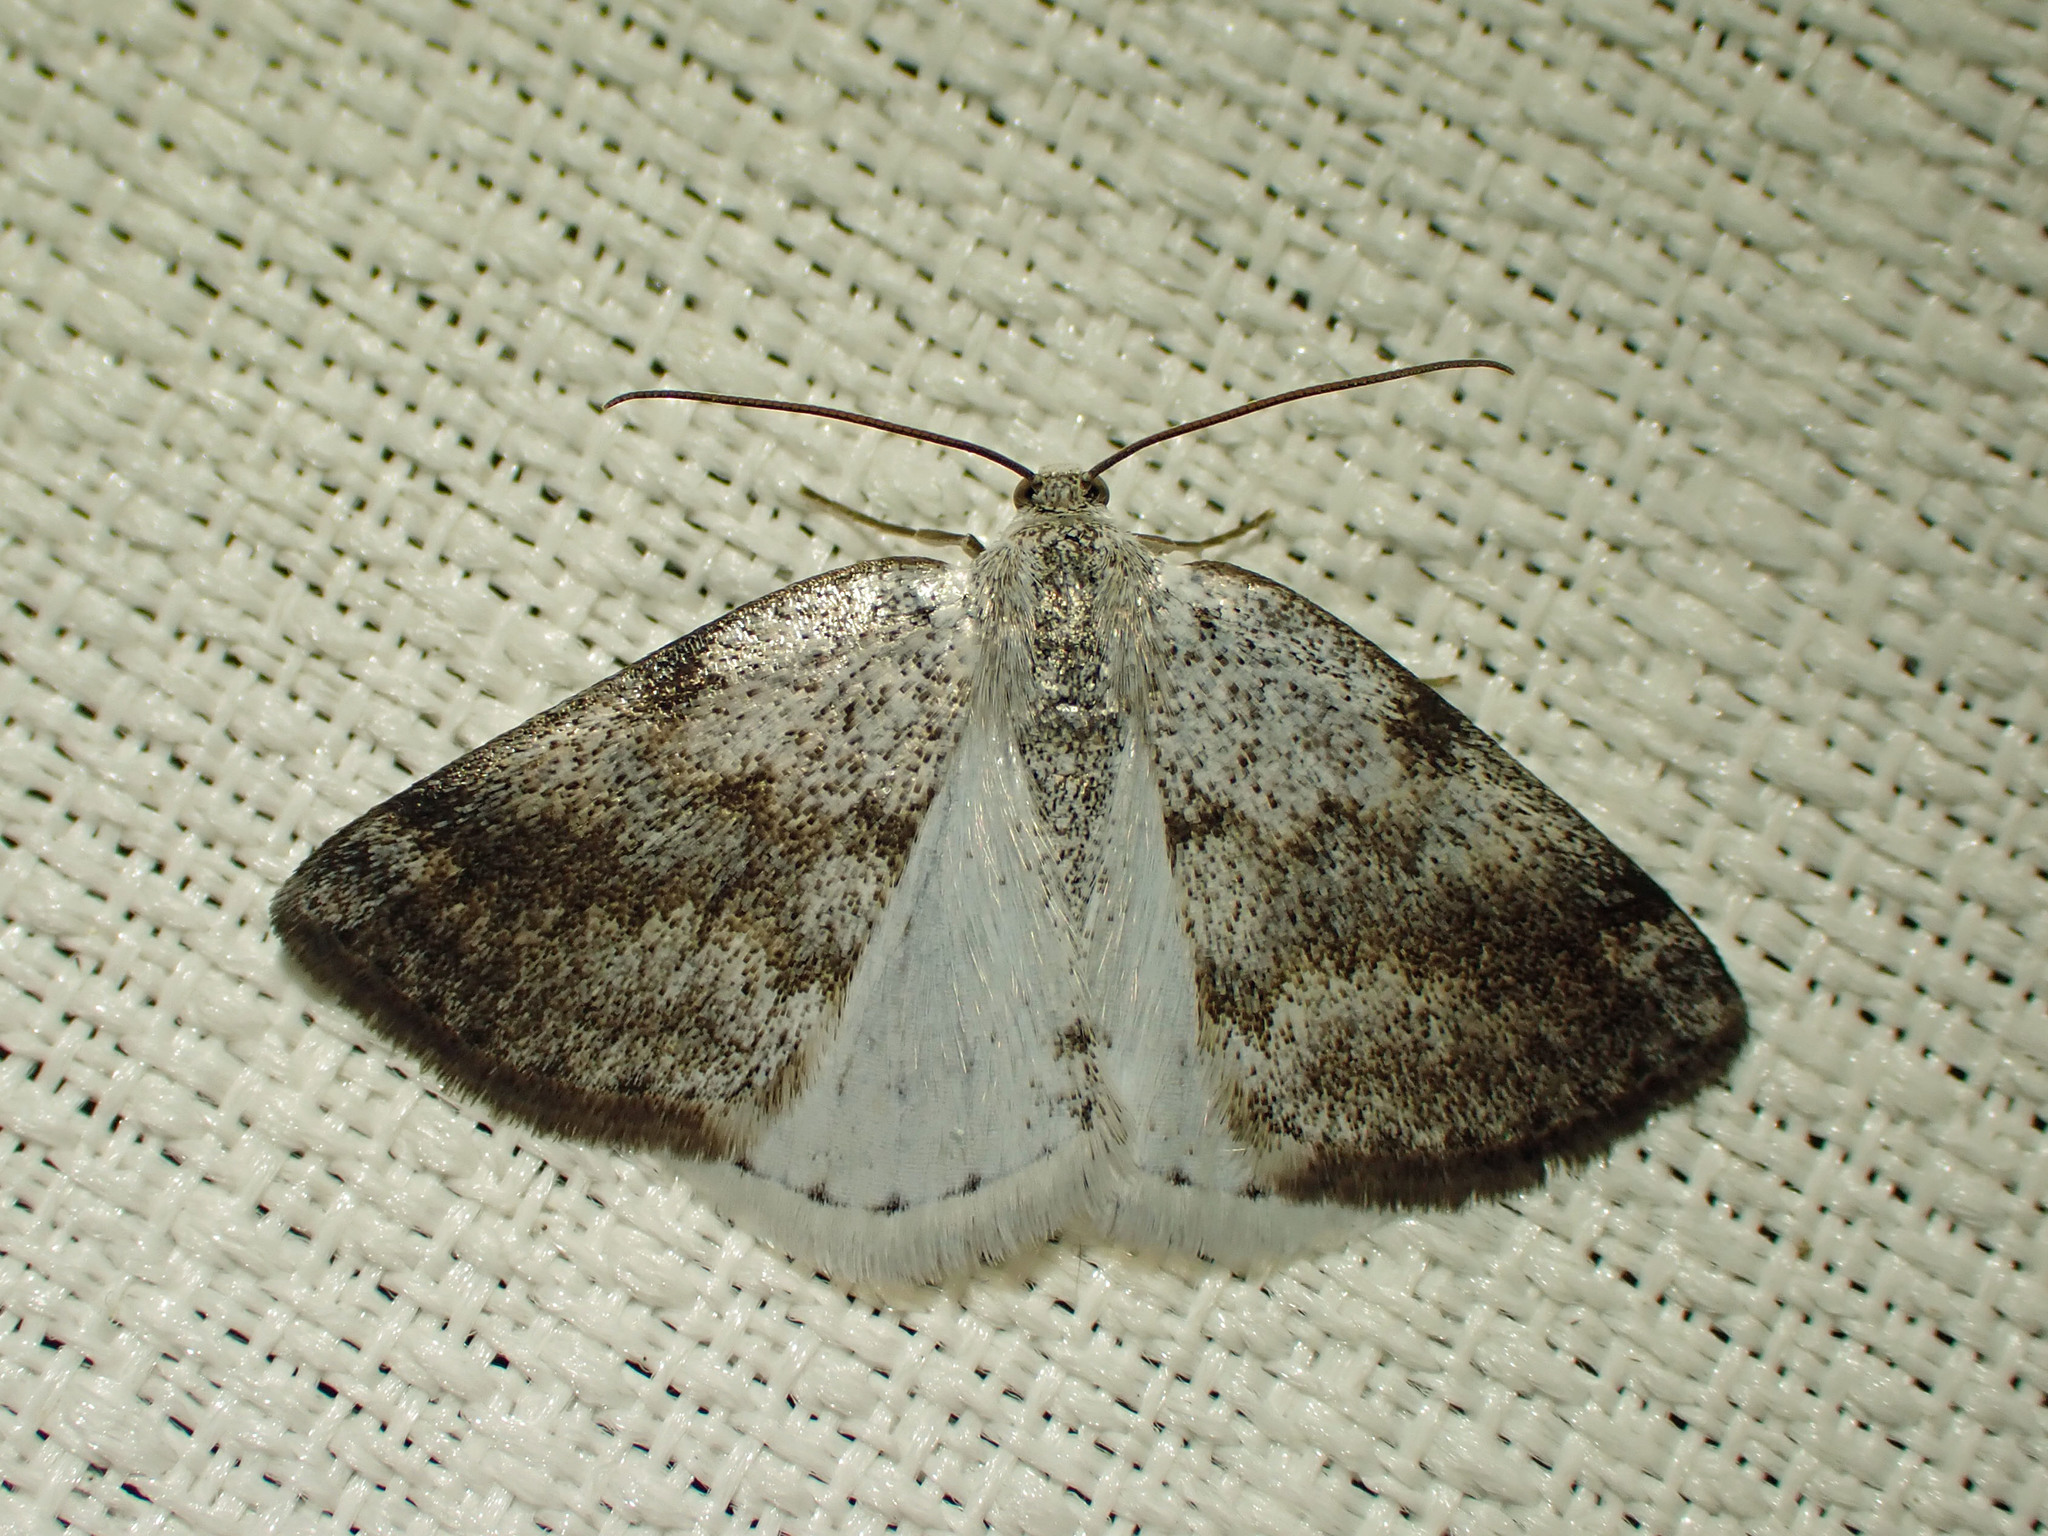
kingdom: Animalia
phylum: Arthropoda
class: Insecta
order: Lepidoptera
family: Geometridae
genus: Lomographa
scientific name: Lomographa semiclarata
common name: Bluish spring moth
